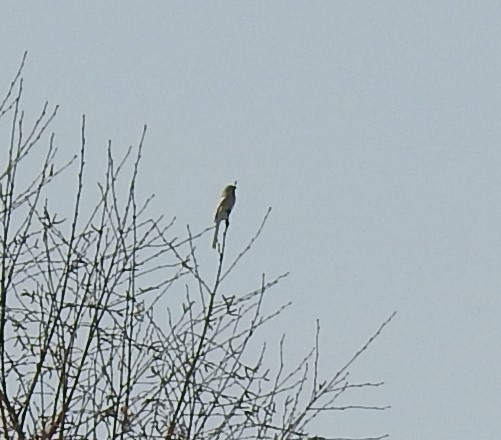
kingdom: Animalia
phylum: Chordata
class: Aves
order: Passeriformes
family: Fringillidae
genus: Carpodacus
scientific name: Carpodacus sibiricus
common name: Long-tailed rosefinch
